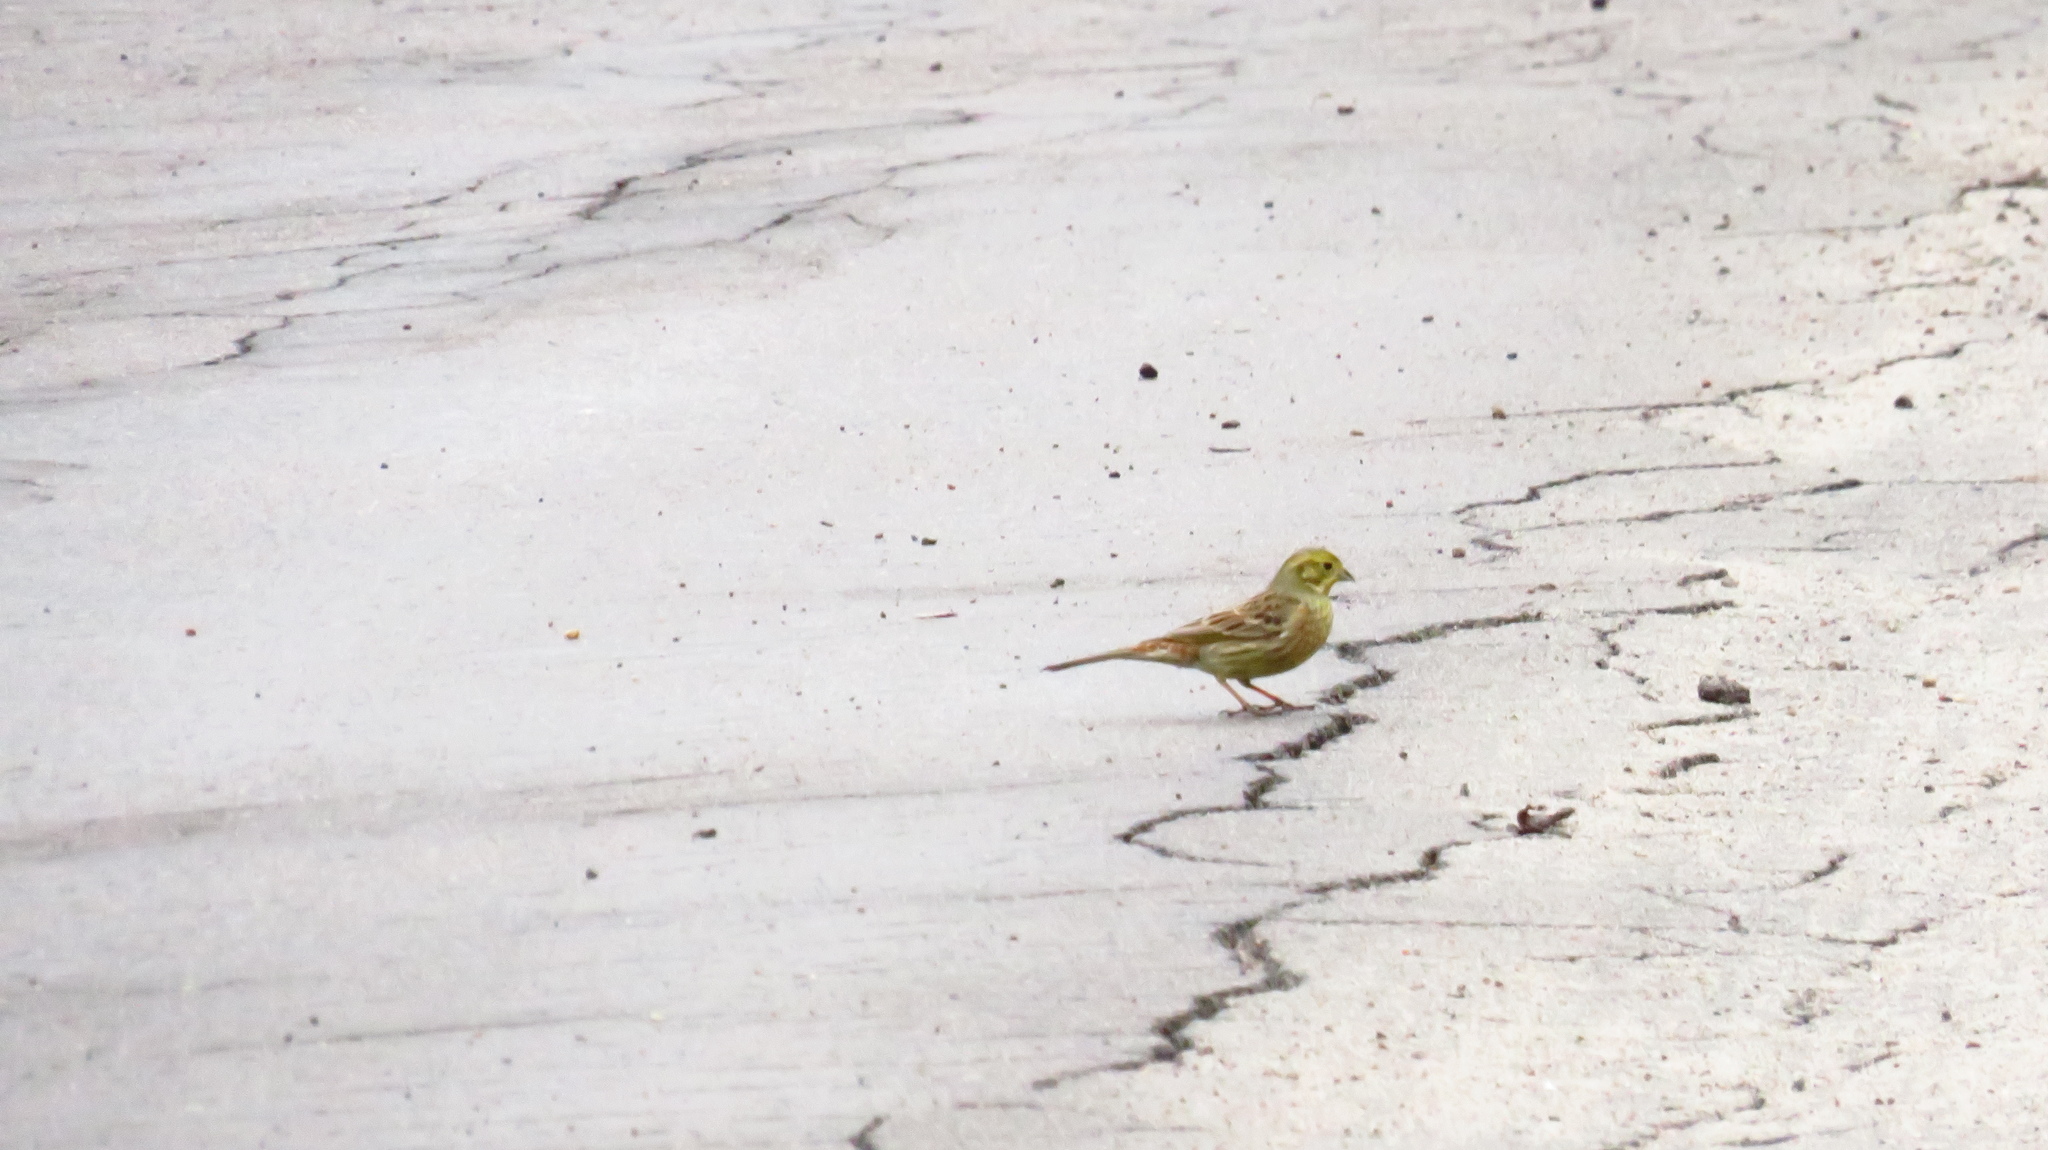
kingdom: Animalia
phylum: Chordata
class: Aves
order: Passeriformes
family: Emberizidae
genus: Emberiza
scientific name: Emberiza citrinella
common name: Yellowhammer
